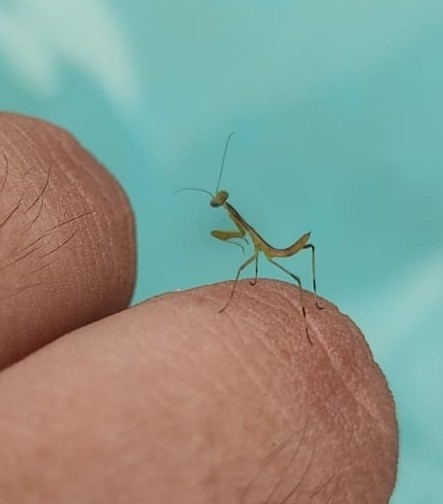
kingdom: Animalia
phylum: Arthropoda
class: Insecta
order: Mantodea
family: Mantidae
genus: Stagmomantis
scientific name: Stagmomantis carolina
